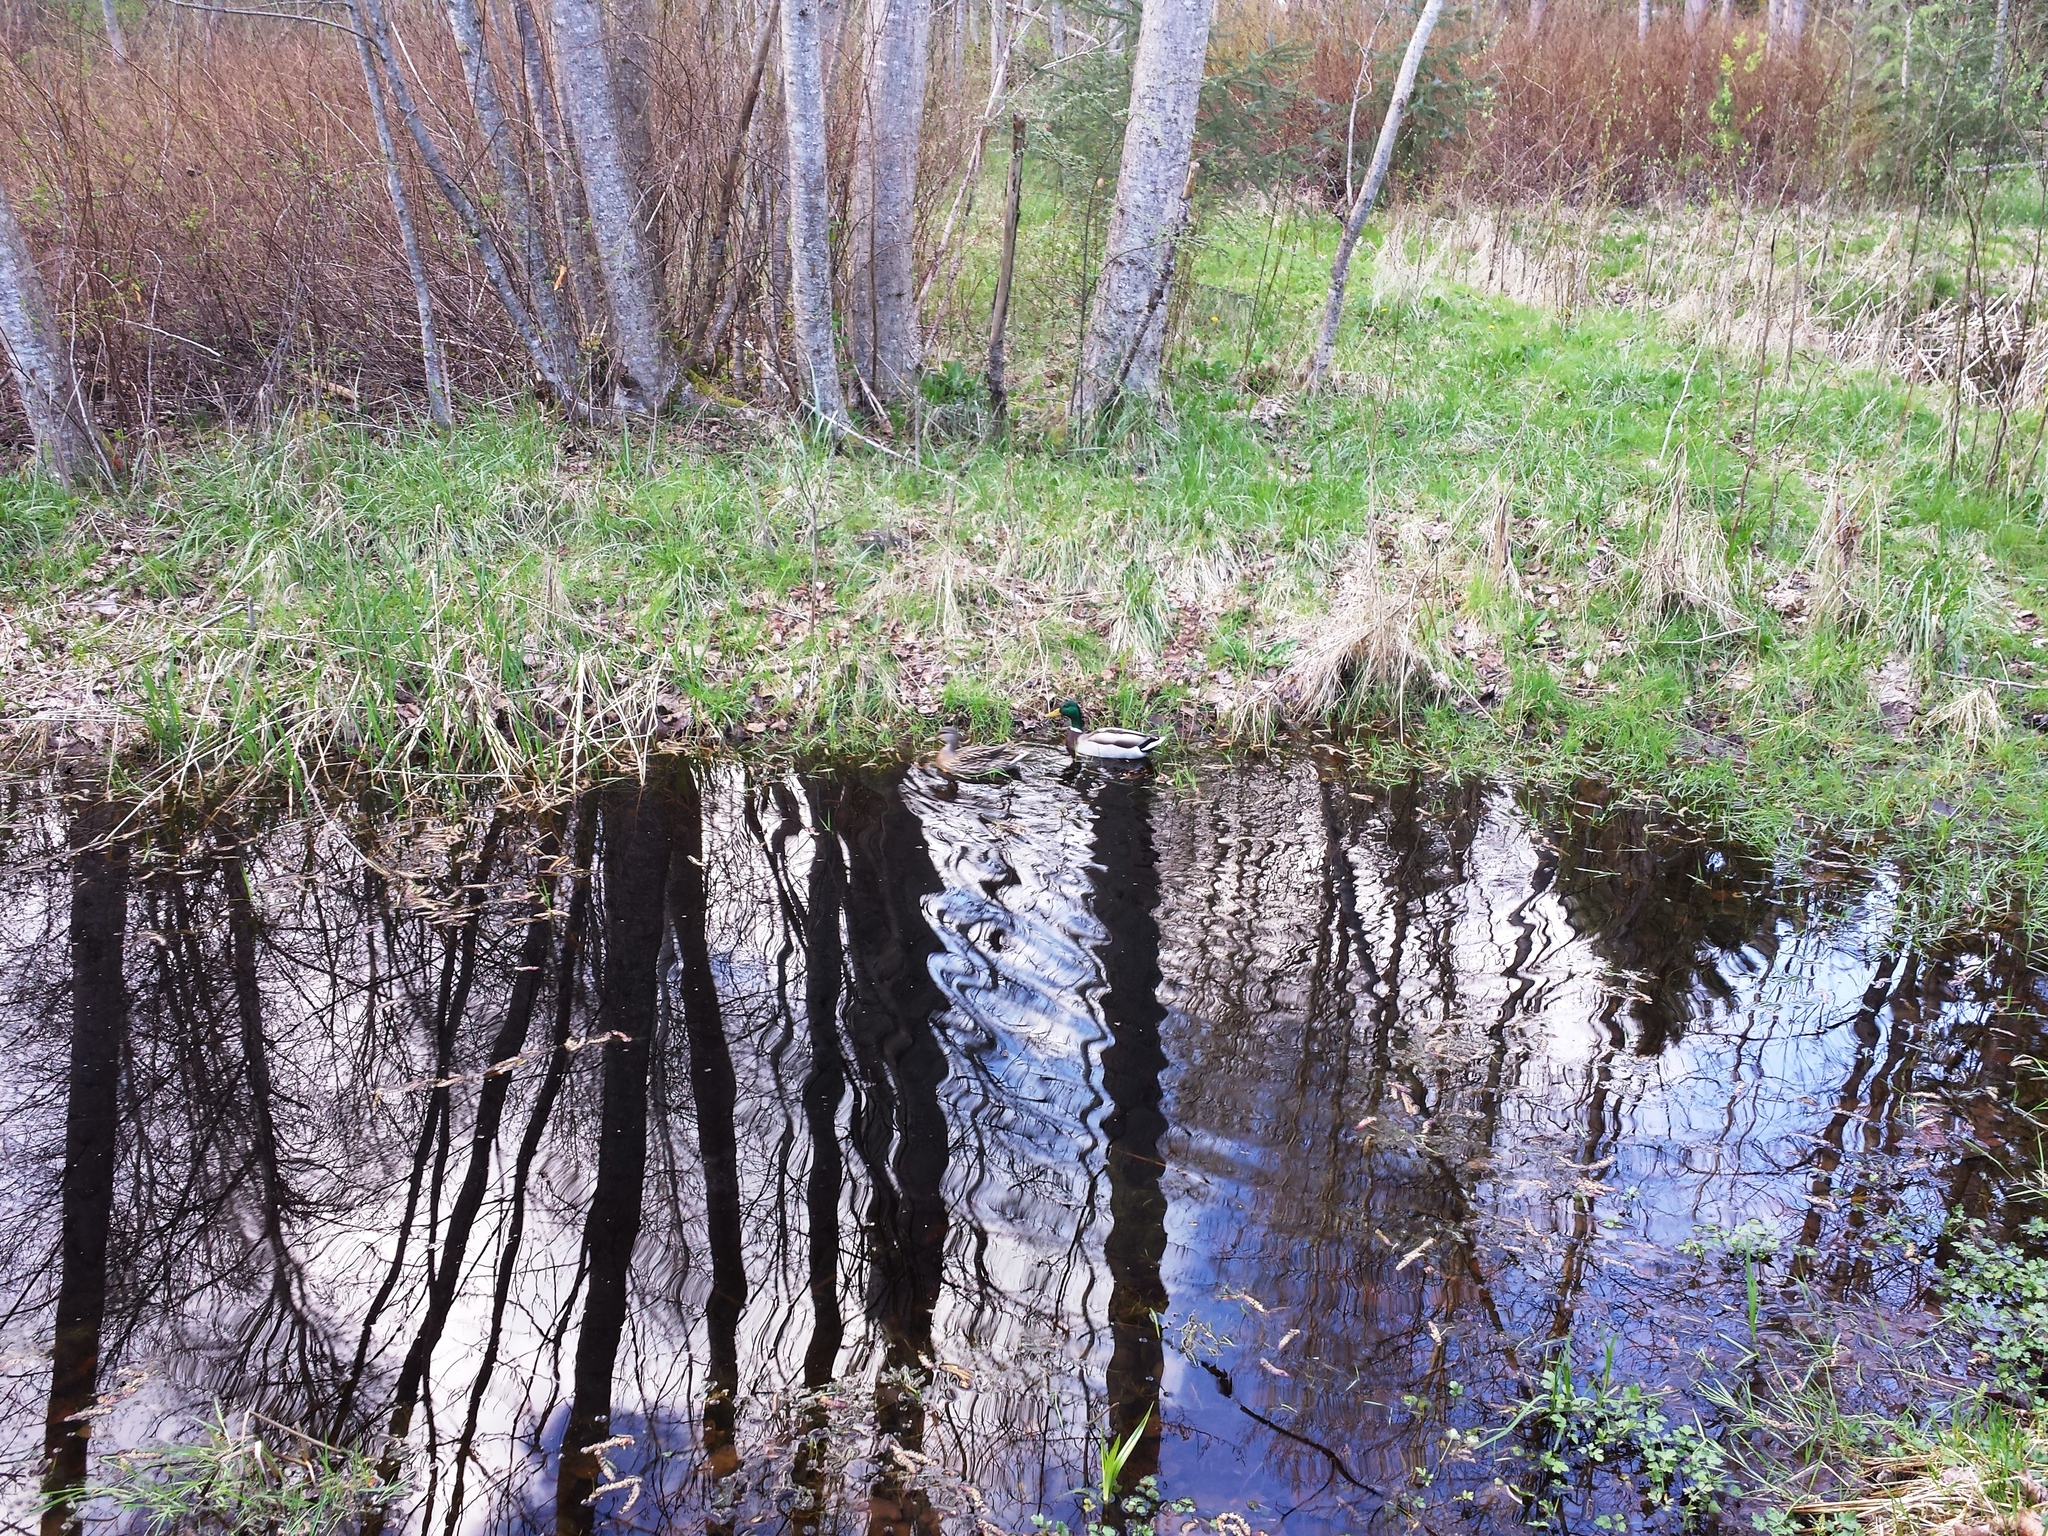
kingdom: Animalia
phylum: Chordata
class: Aves
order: Anseriformes
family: Anatidae
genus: Anas
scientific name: Anas platyrhynchos
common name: Mallard
